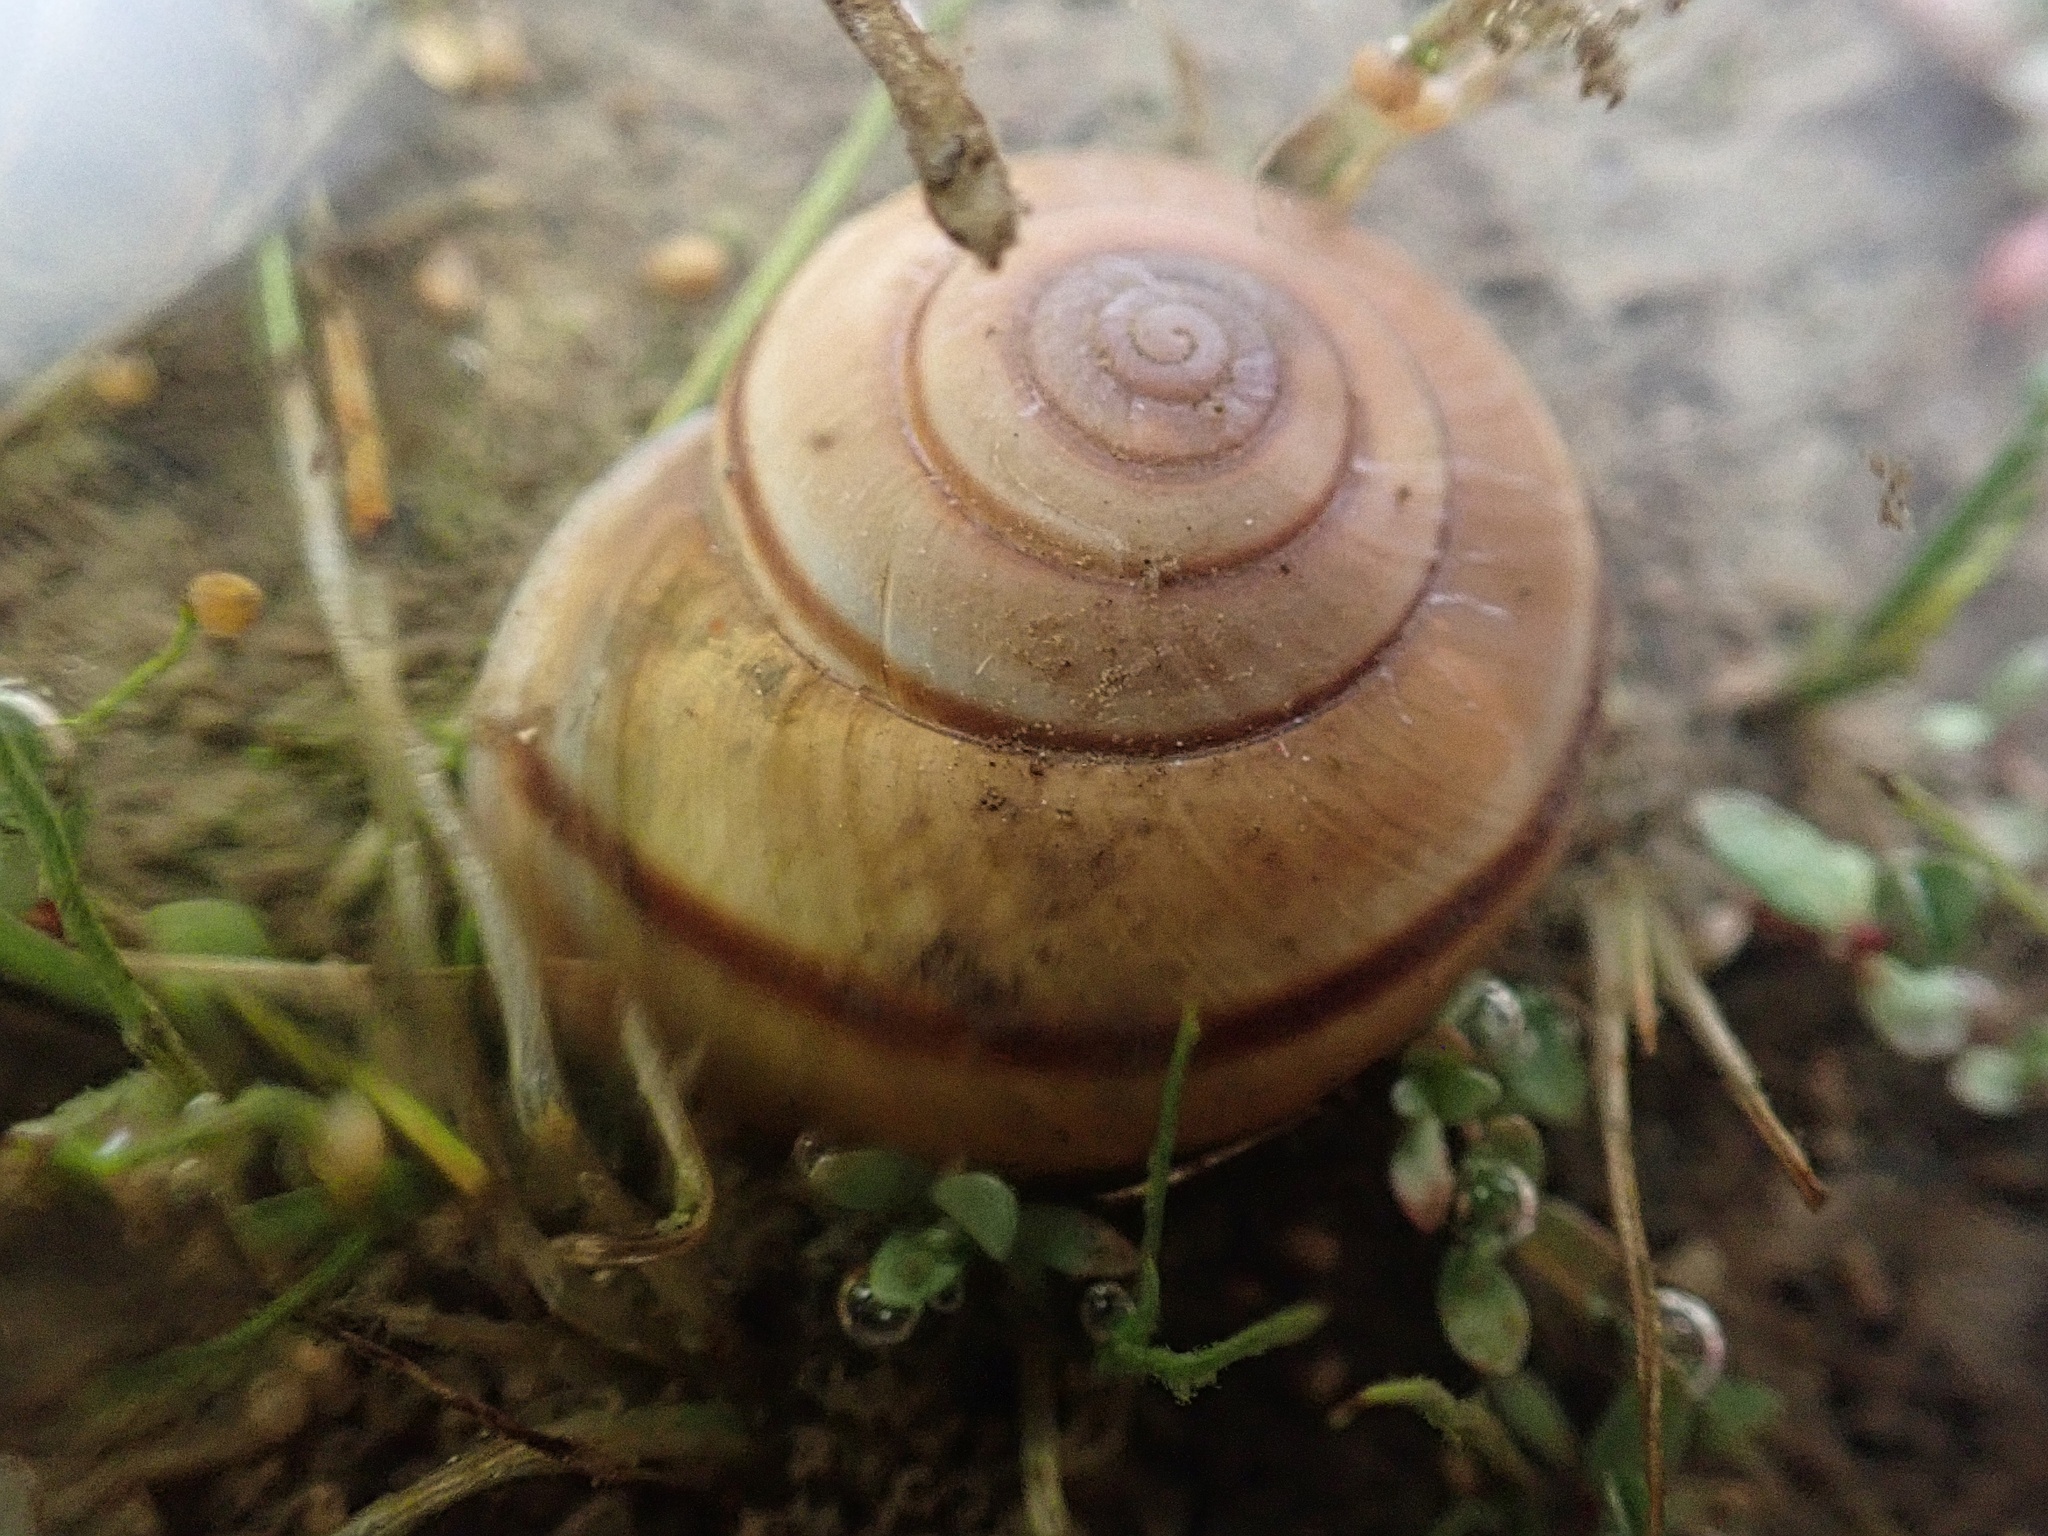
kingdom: Animalia
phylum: Mollusca
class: Gastropoda
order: Stylommatophora
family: Xanthonychidae
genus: Helminthoglypta
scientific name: Helminthoglypta tudiculata
